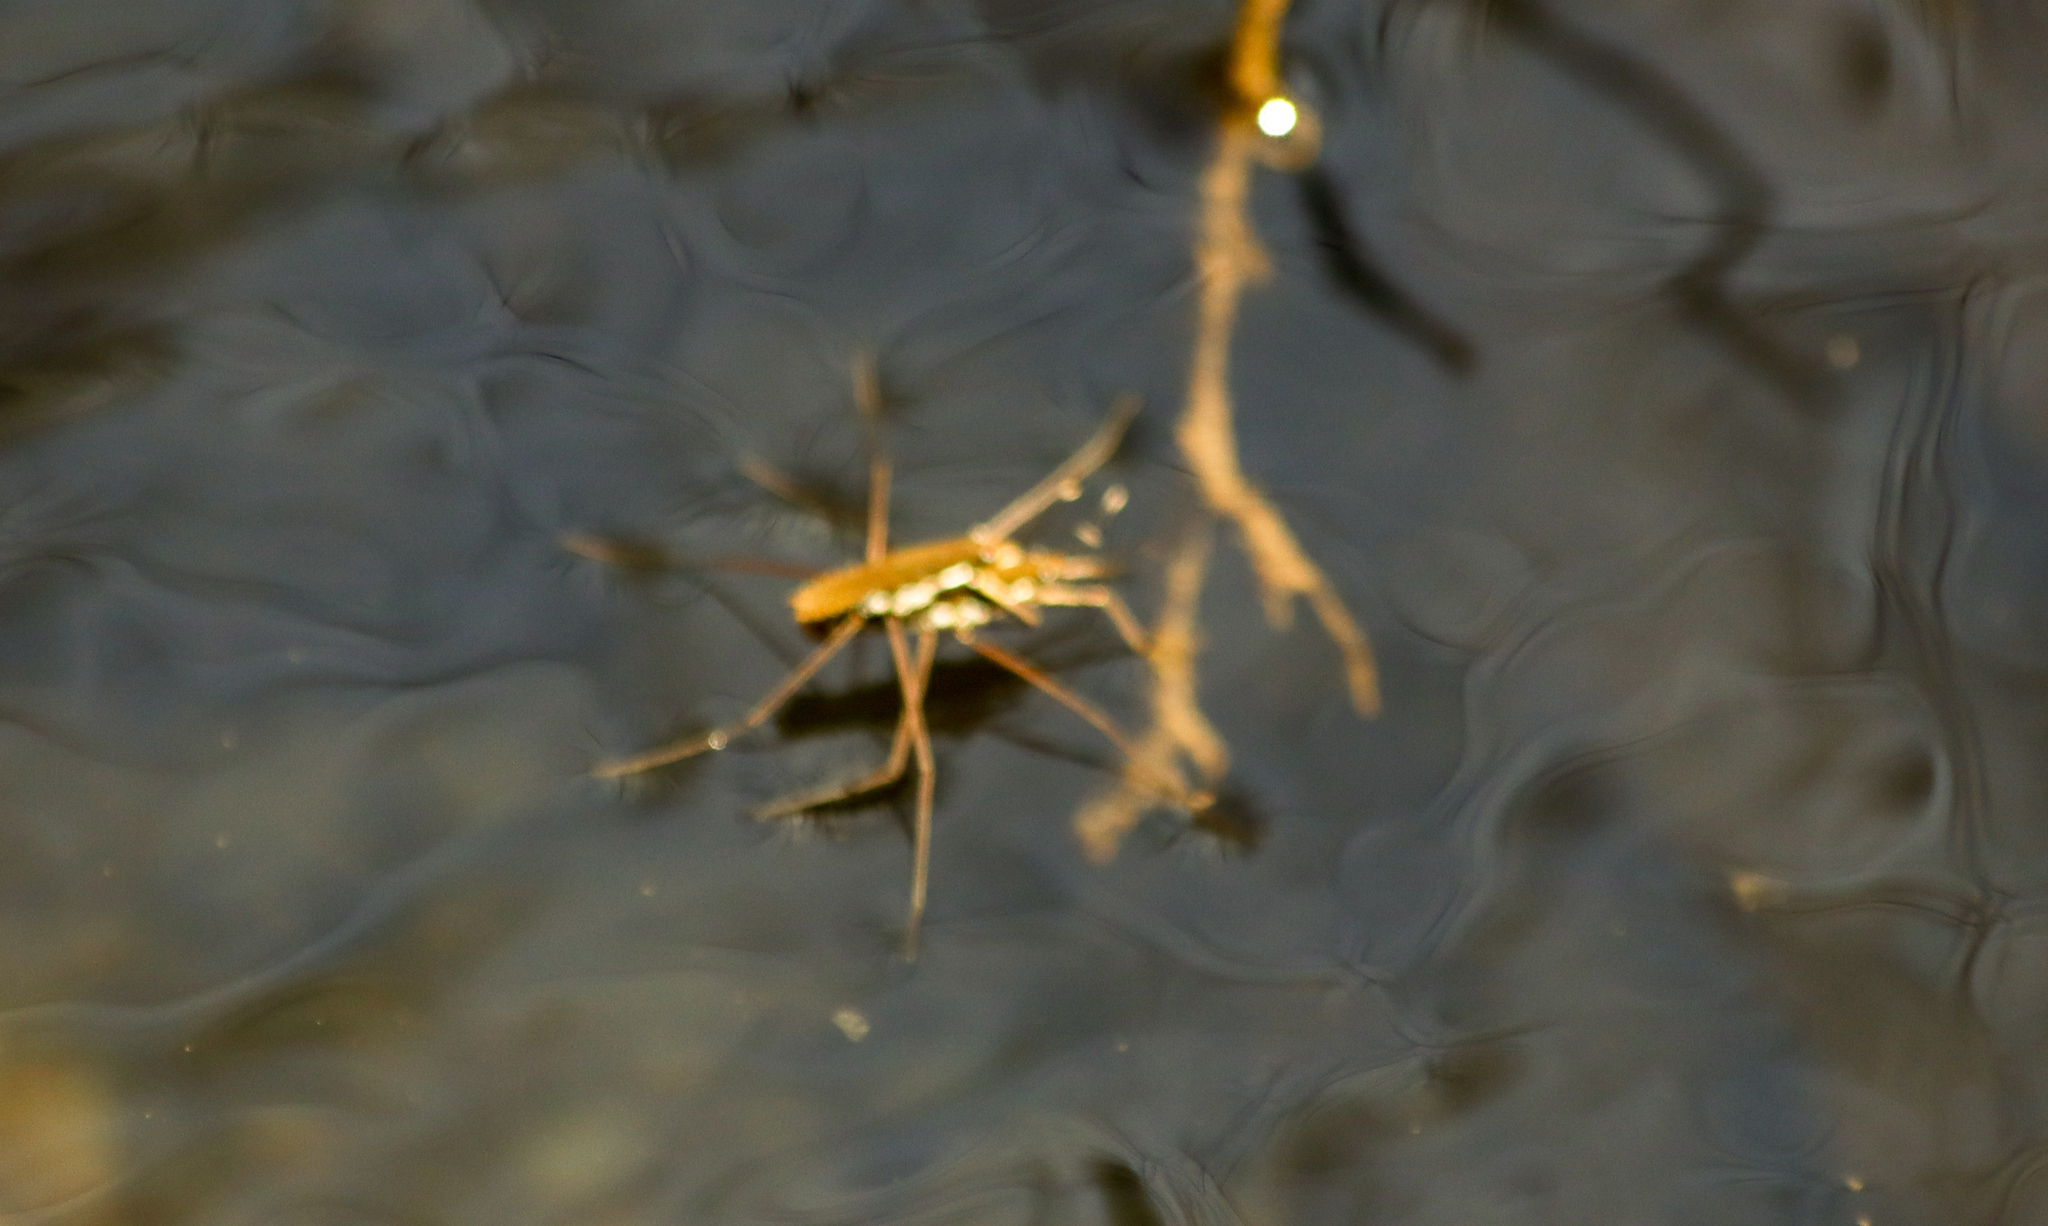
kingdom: Animalia
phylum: Arthropoda
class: Insecta
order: Hemiptera
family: Gerridae
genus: Aquarius
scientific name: Aquarius remigis
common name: Common water strider
